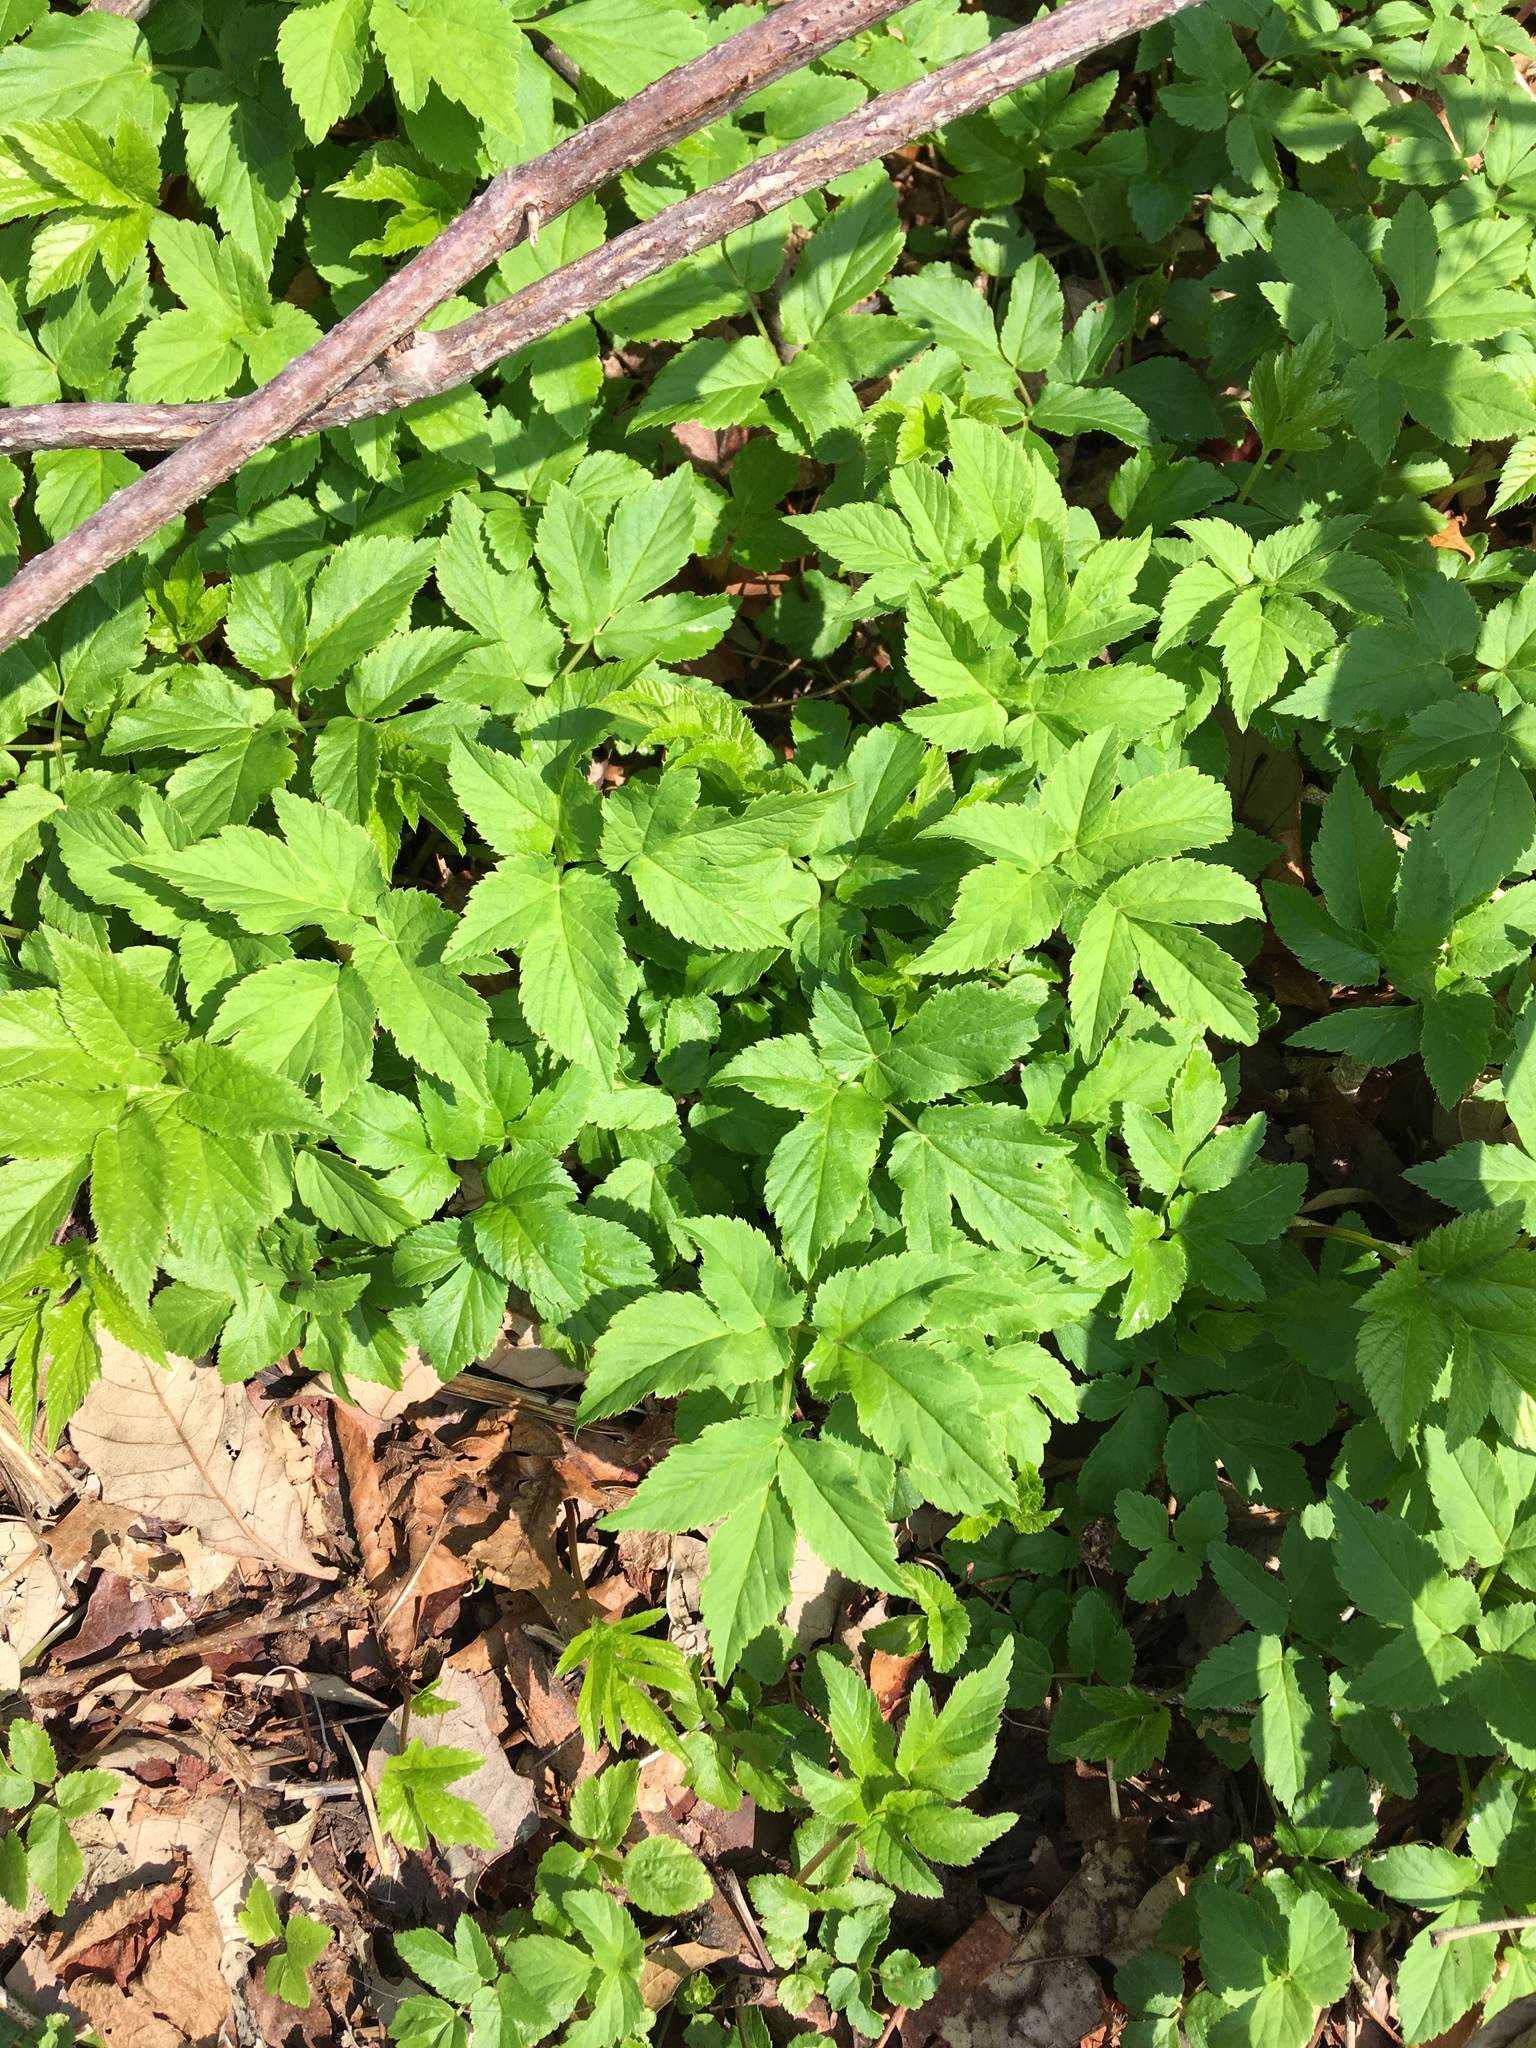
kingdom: Plantae
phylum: Tracheophyta
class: Magnoliopsida
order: Apiales
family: Apiaceae
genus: Aegopodium
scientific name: Aegopodium podagraria
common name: Ground-elder
